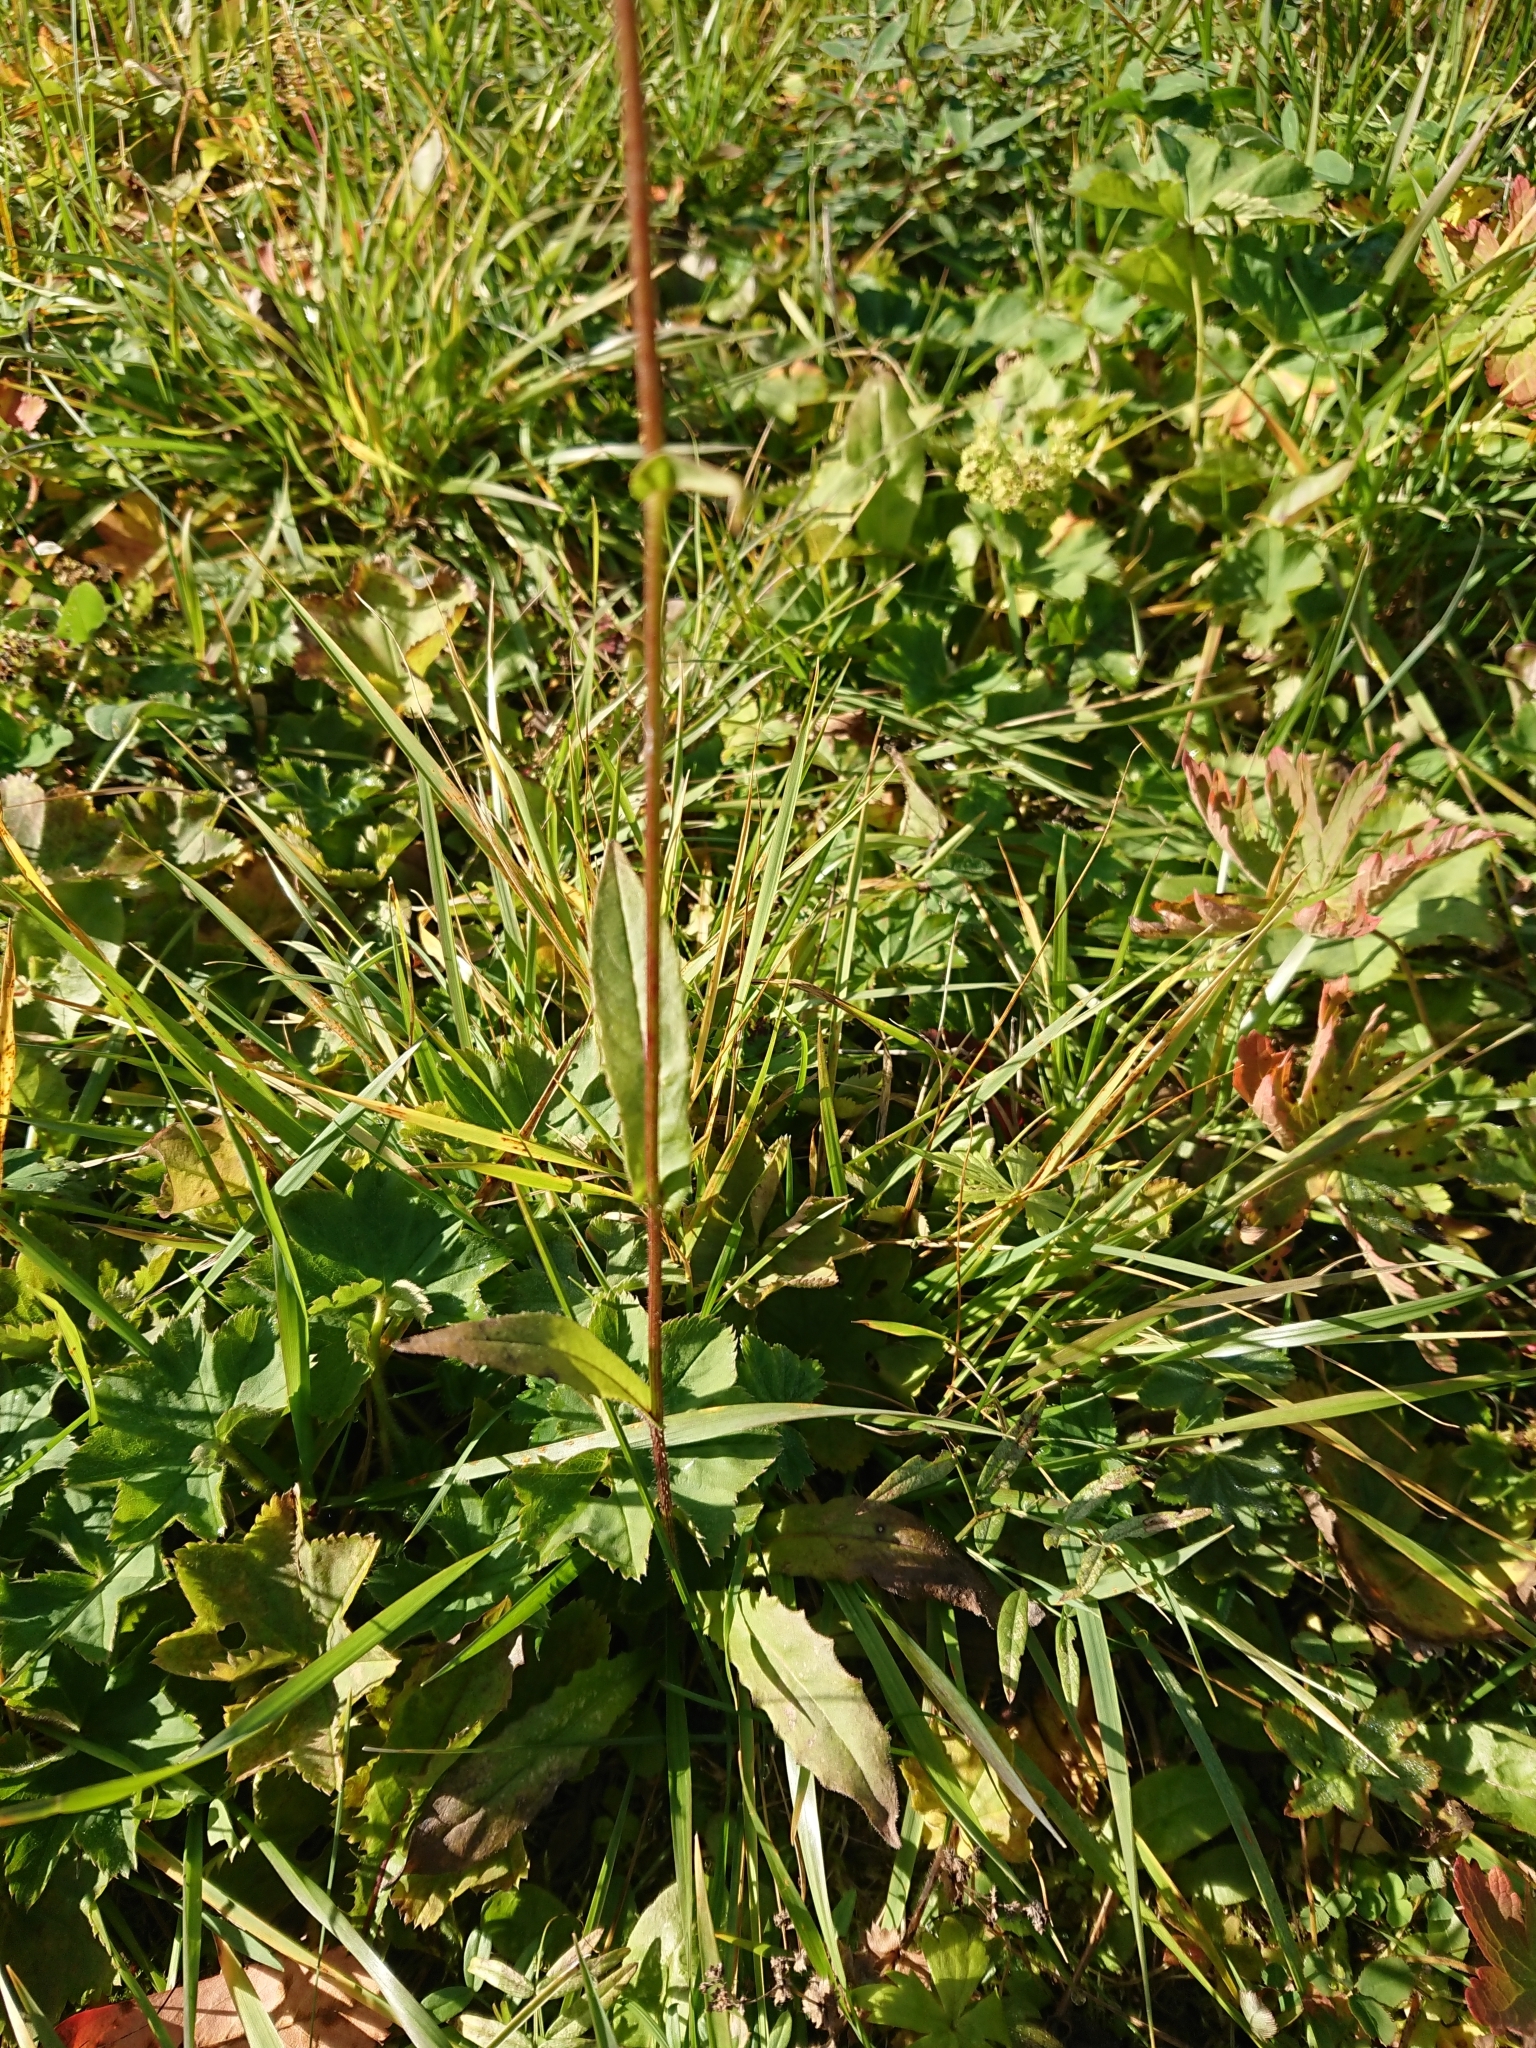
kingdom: Plantae
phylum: Tracheophyta
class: Magnoliopsida
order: Asterales
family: Asteraceae
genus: Picris
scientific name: Picris hieracioides
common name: Hawkweed oxtongue
